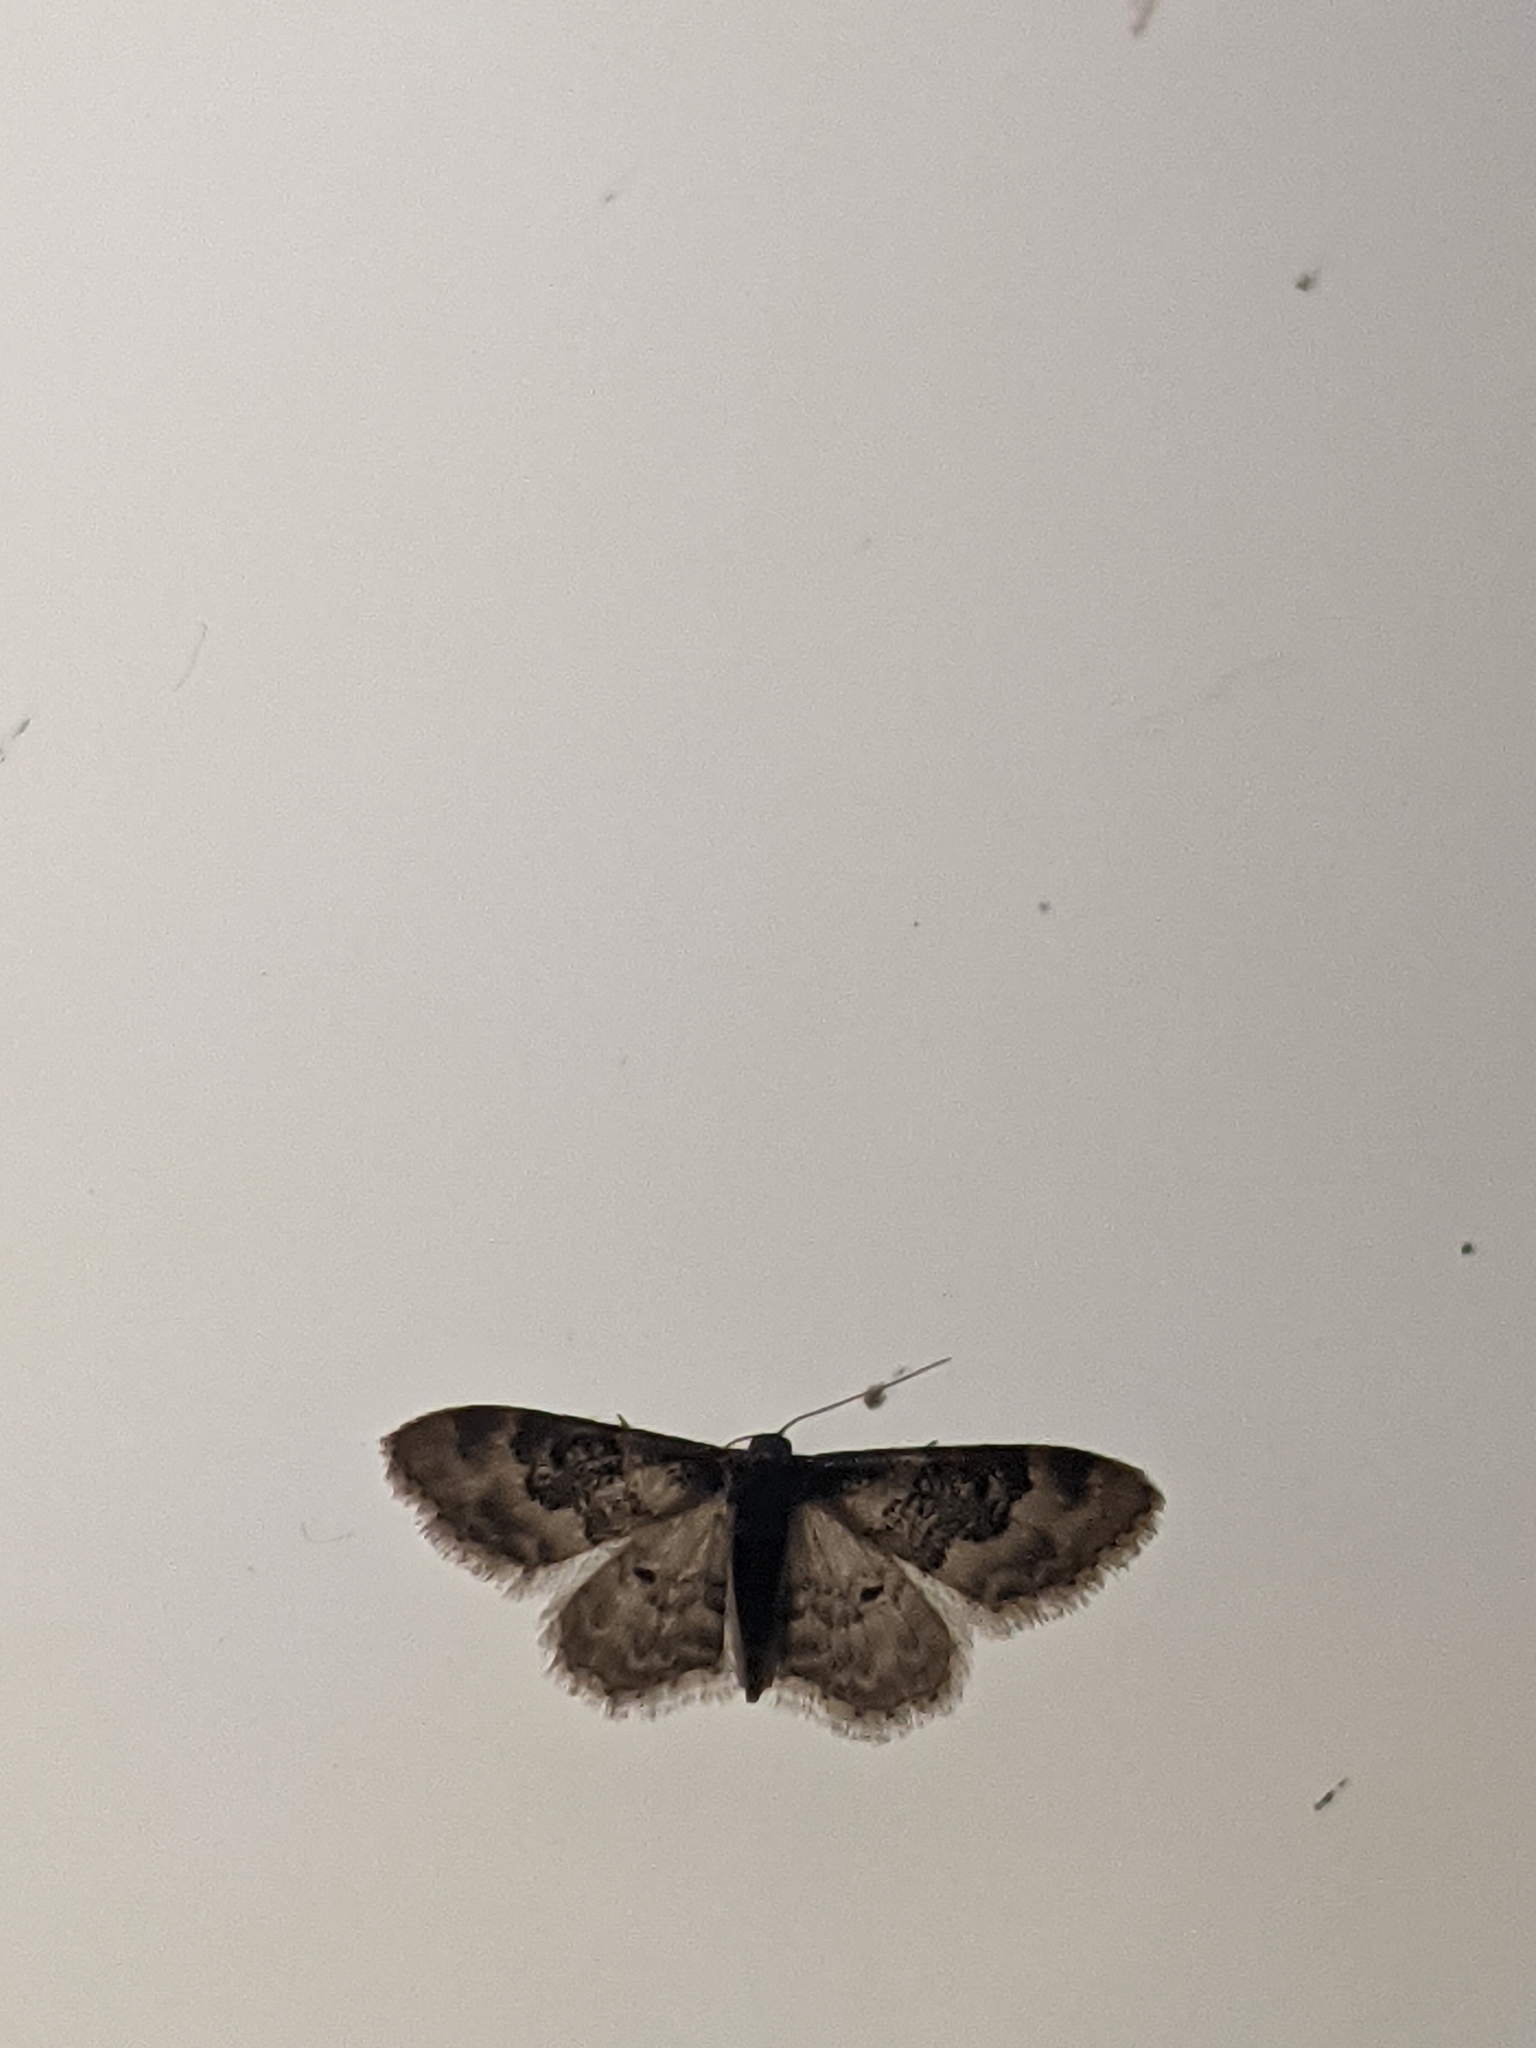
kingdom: Animalia
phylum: Arthropoda
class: Insecta
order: Lepidoptera
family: Geometridae
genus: Idaea
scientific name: Idaea rusticata
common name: Least carpet
